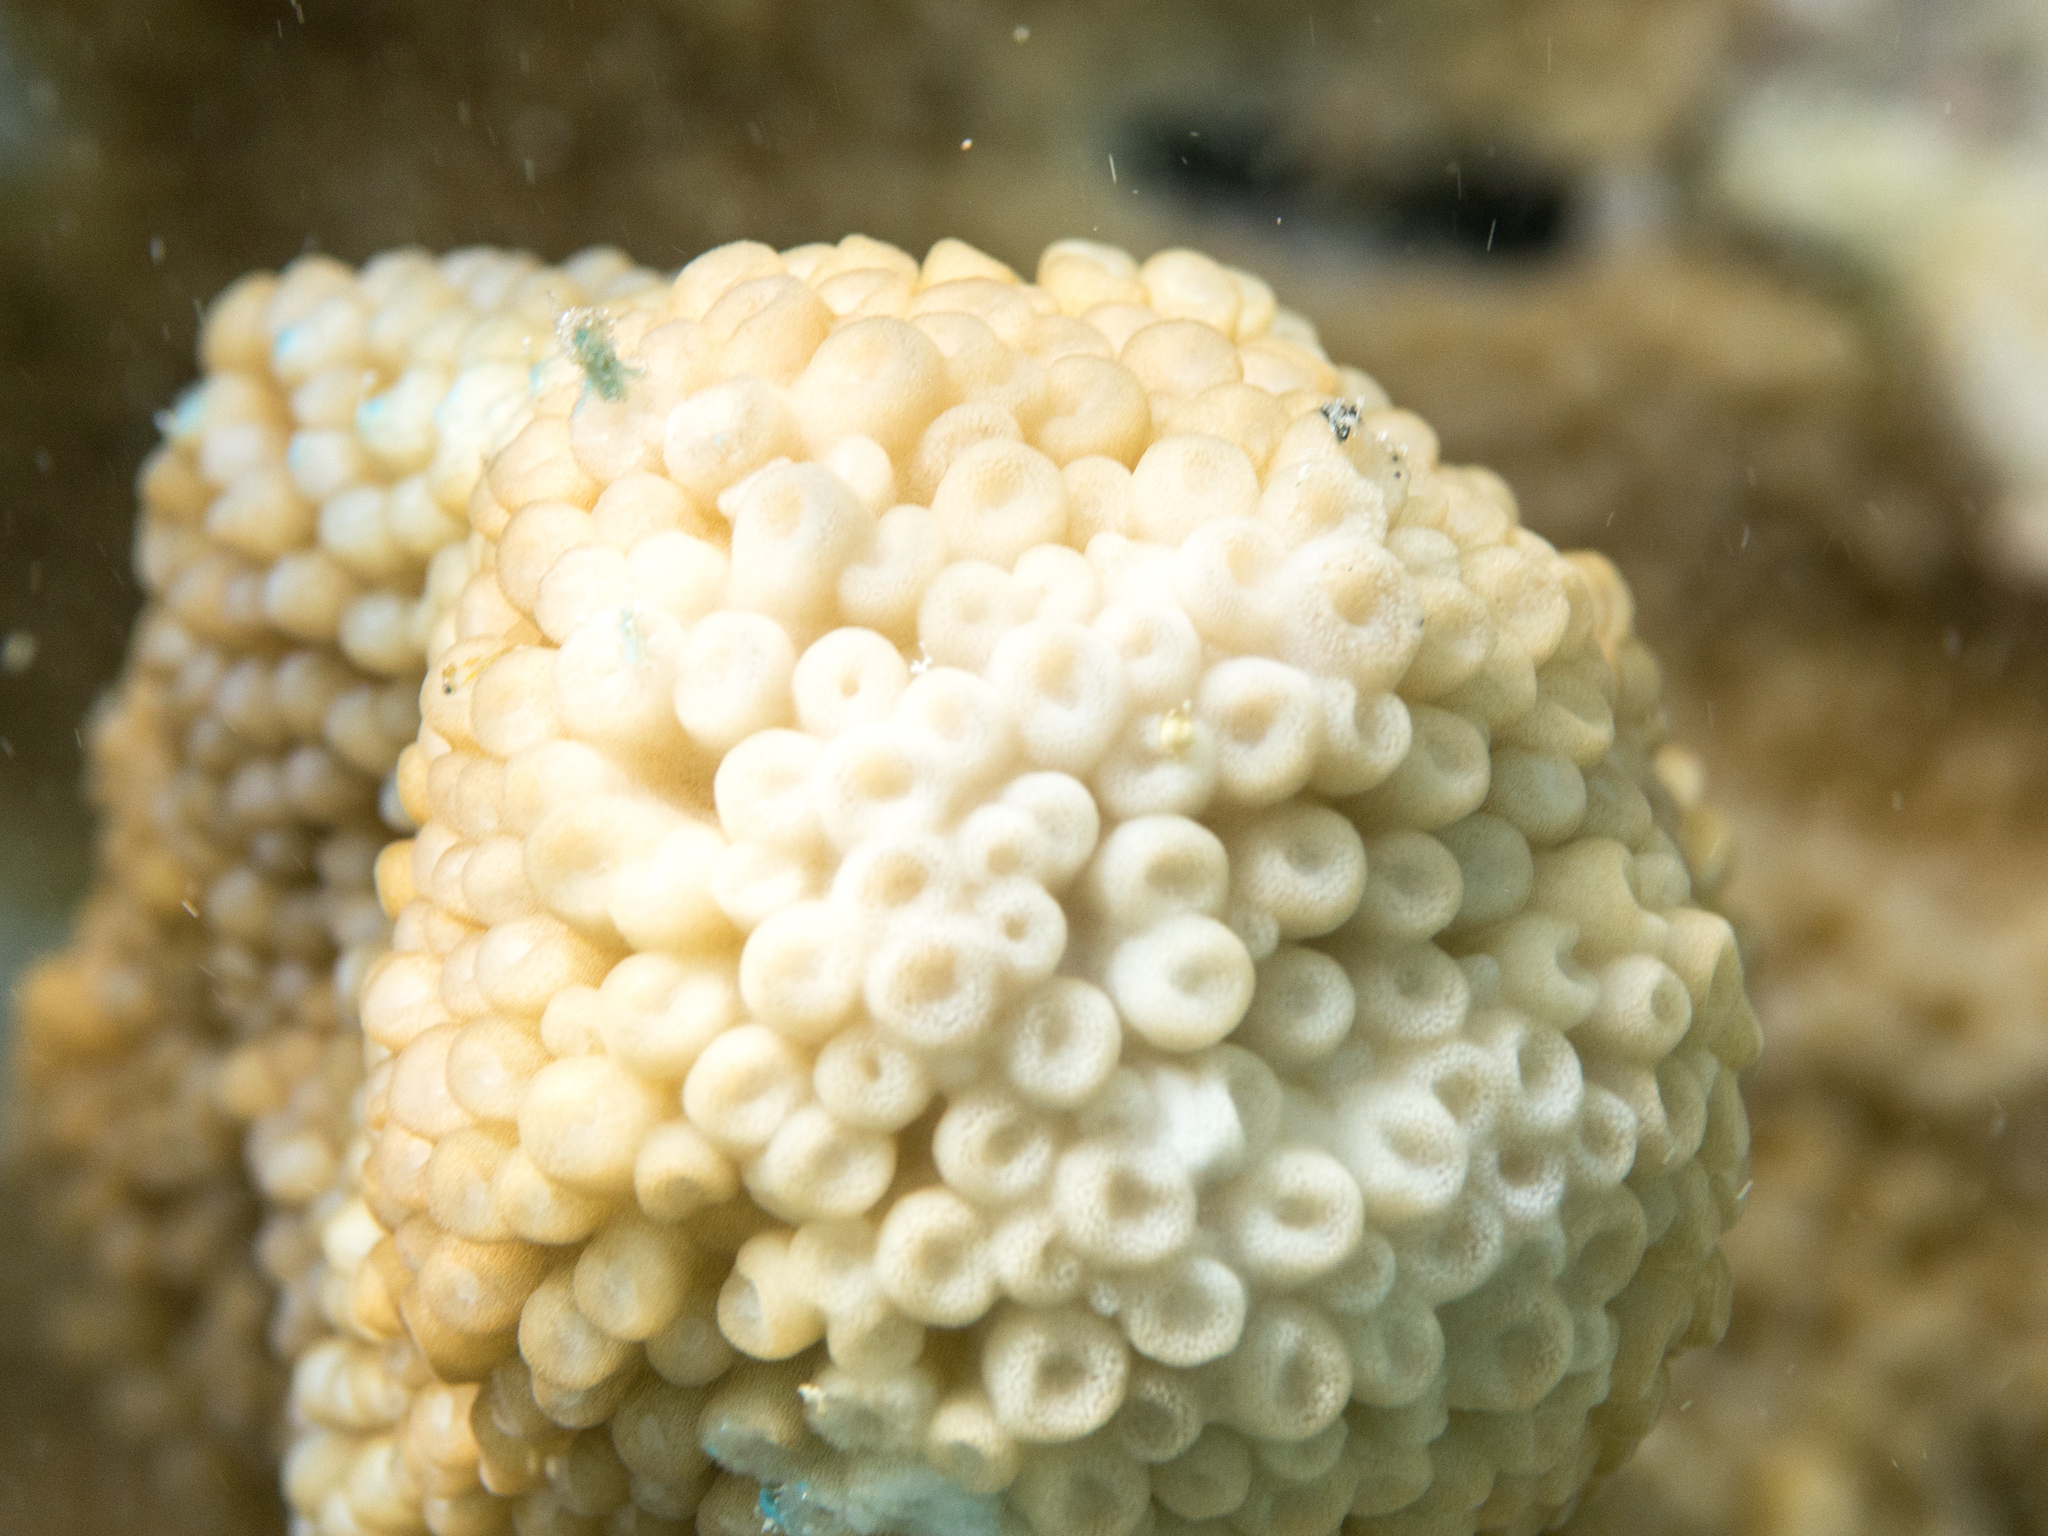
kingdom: Animalia
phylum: Cnidaria
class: Anthozoa
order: Scleractinia
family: Acroporidae
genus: Isopora
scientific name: Isopora palifera
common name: Catch bowl coral
